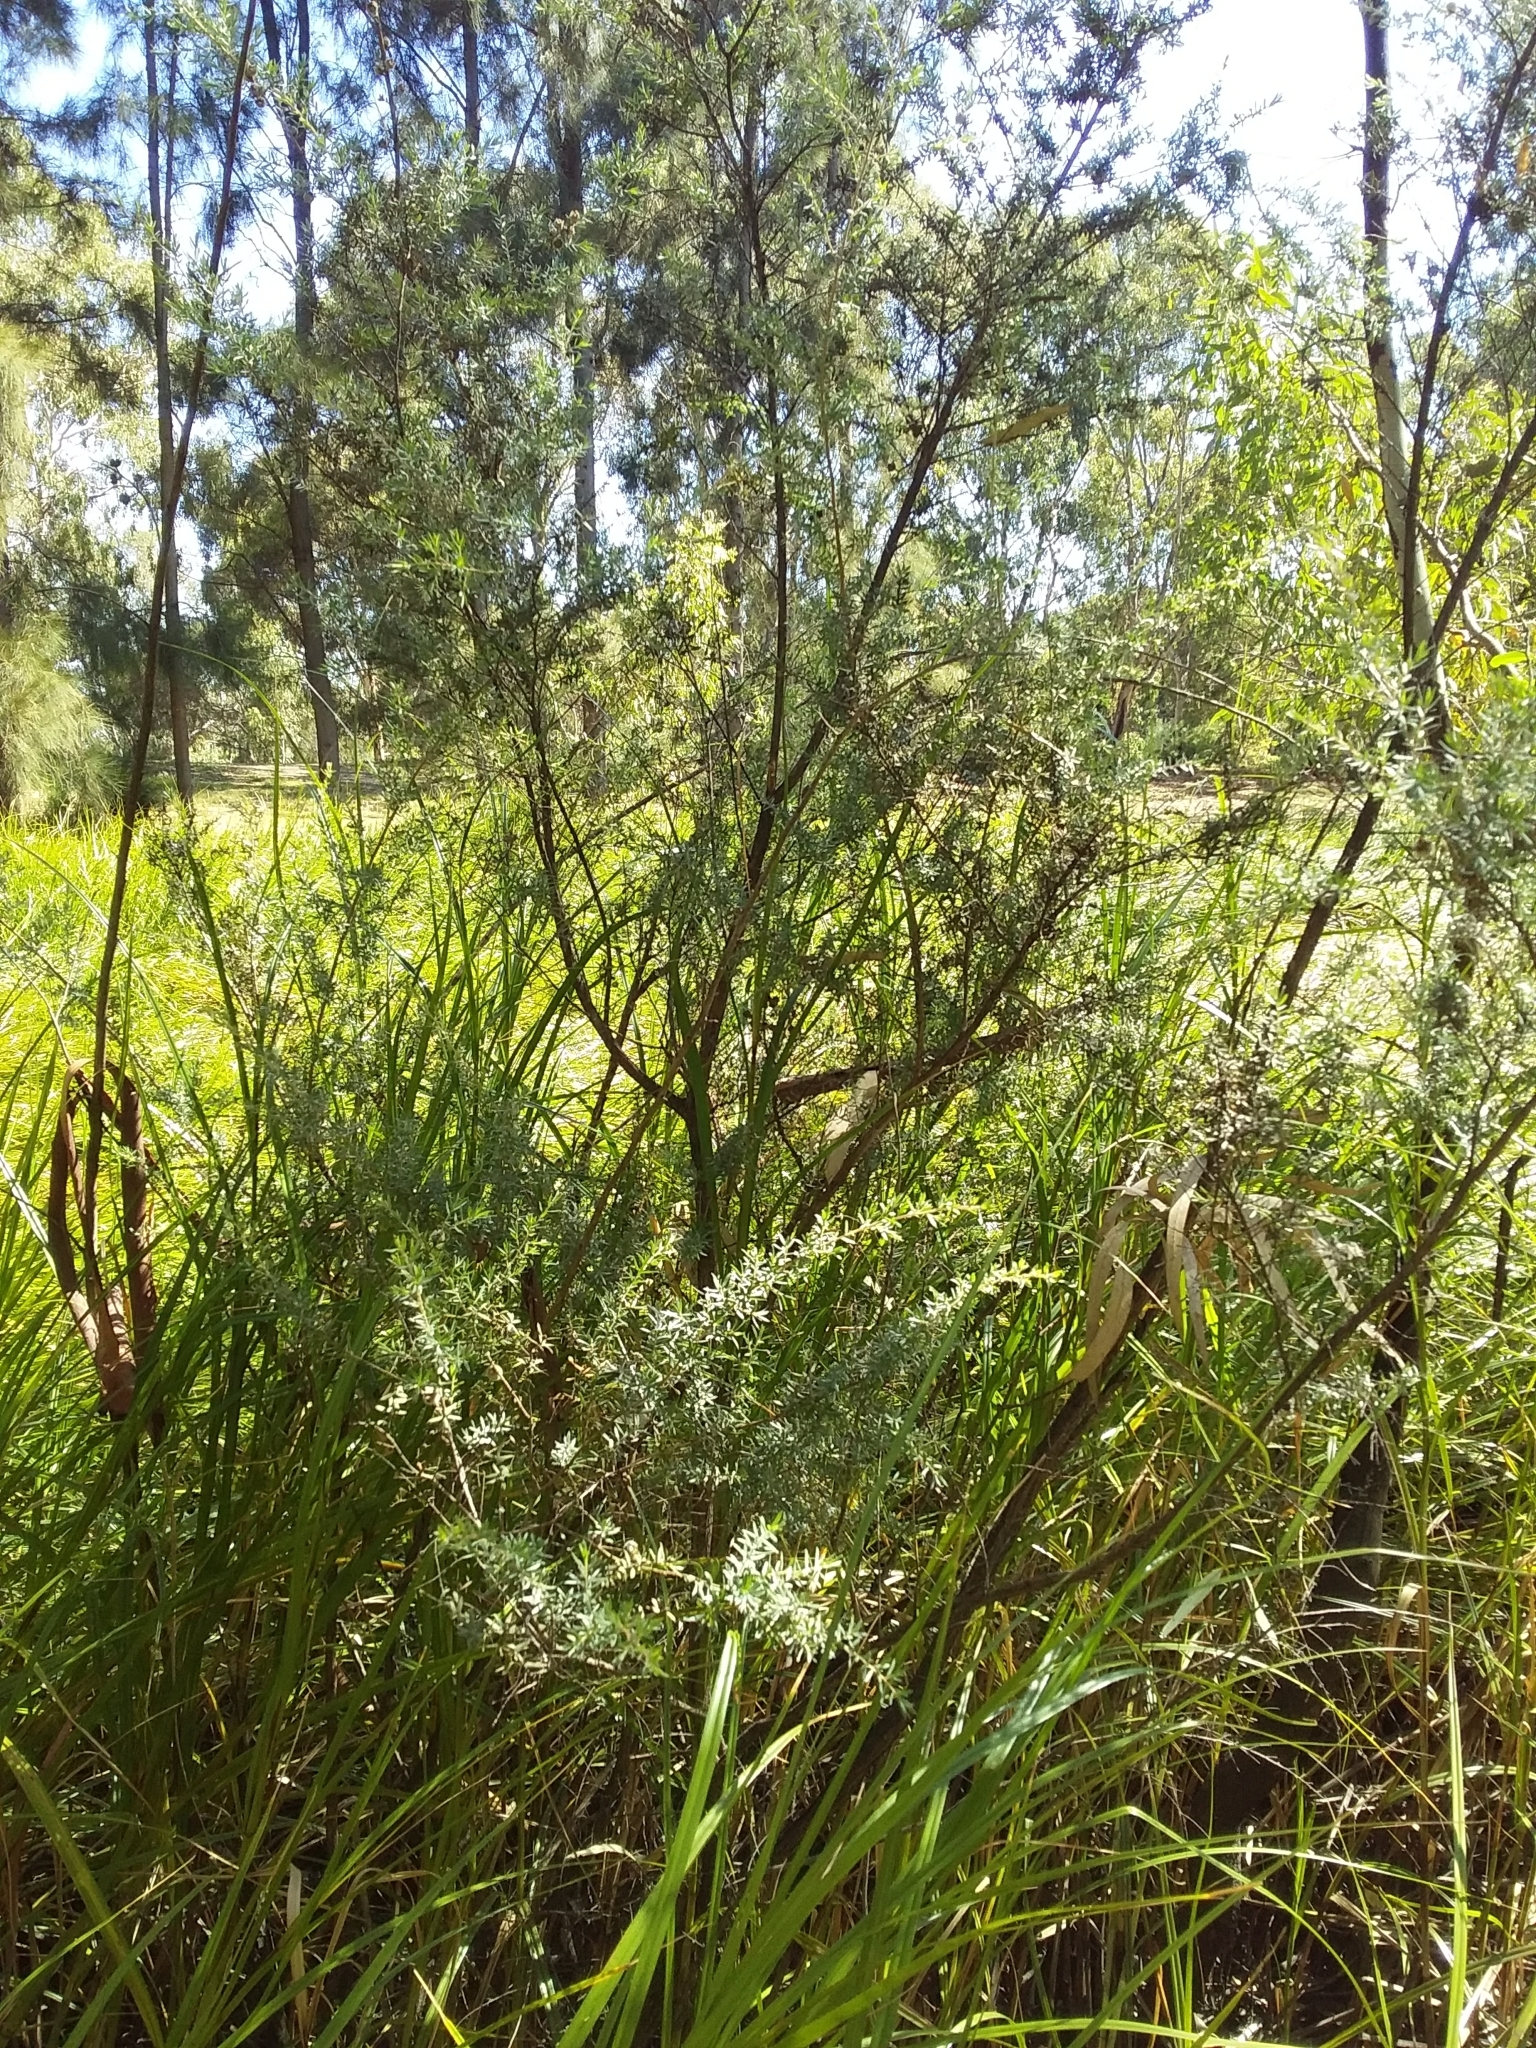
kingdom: Plantae
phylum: Tracheophyta
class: Magnoliopsida
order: Myrtales
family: Myrtaceae
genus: Leptospermum
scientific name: Leptospermum lanigerum
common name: Woolly tea-tree
